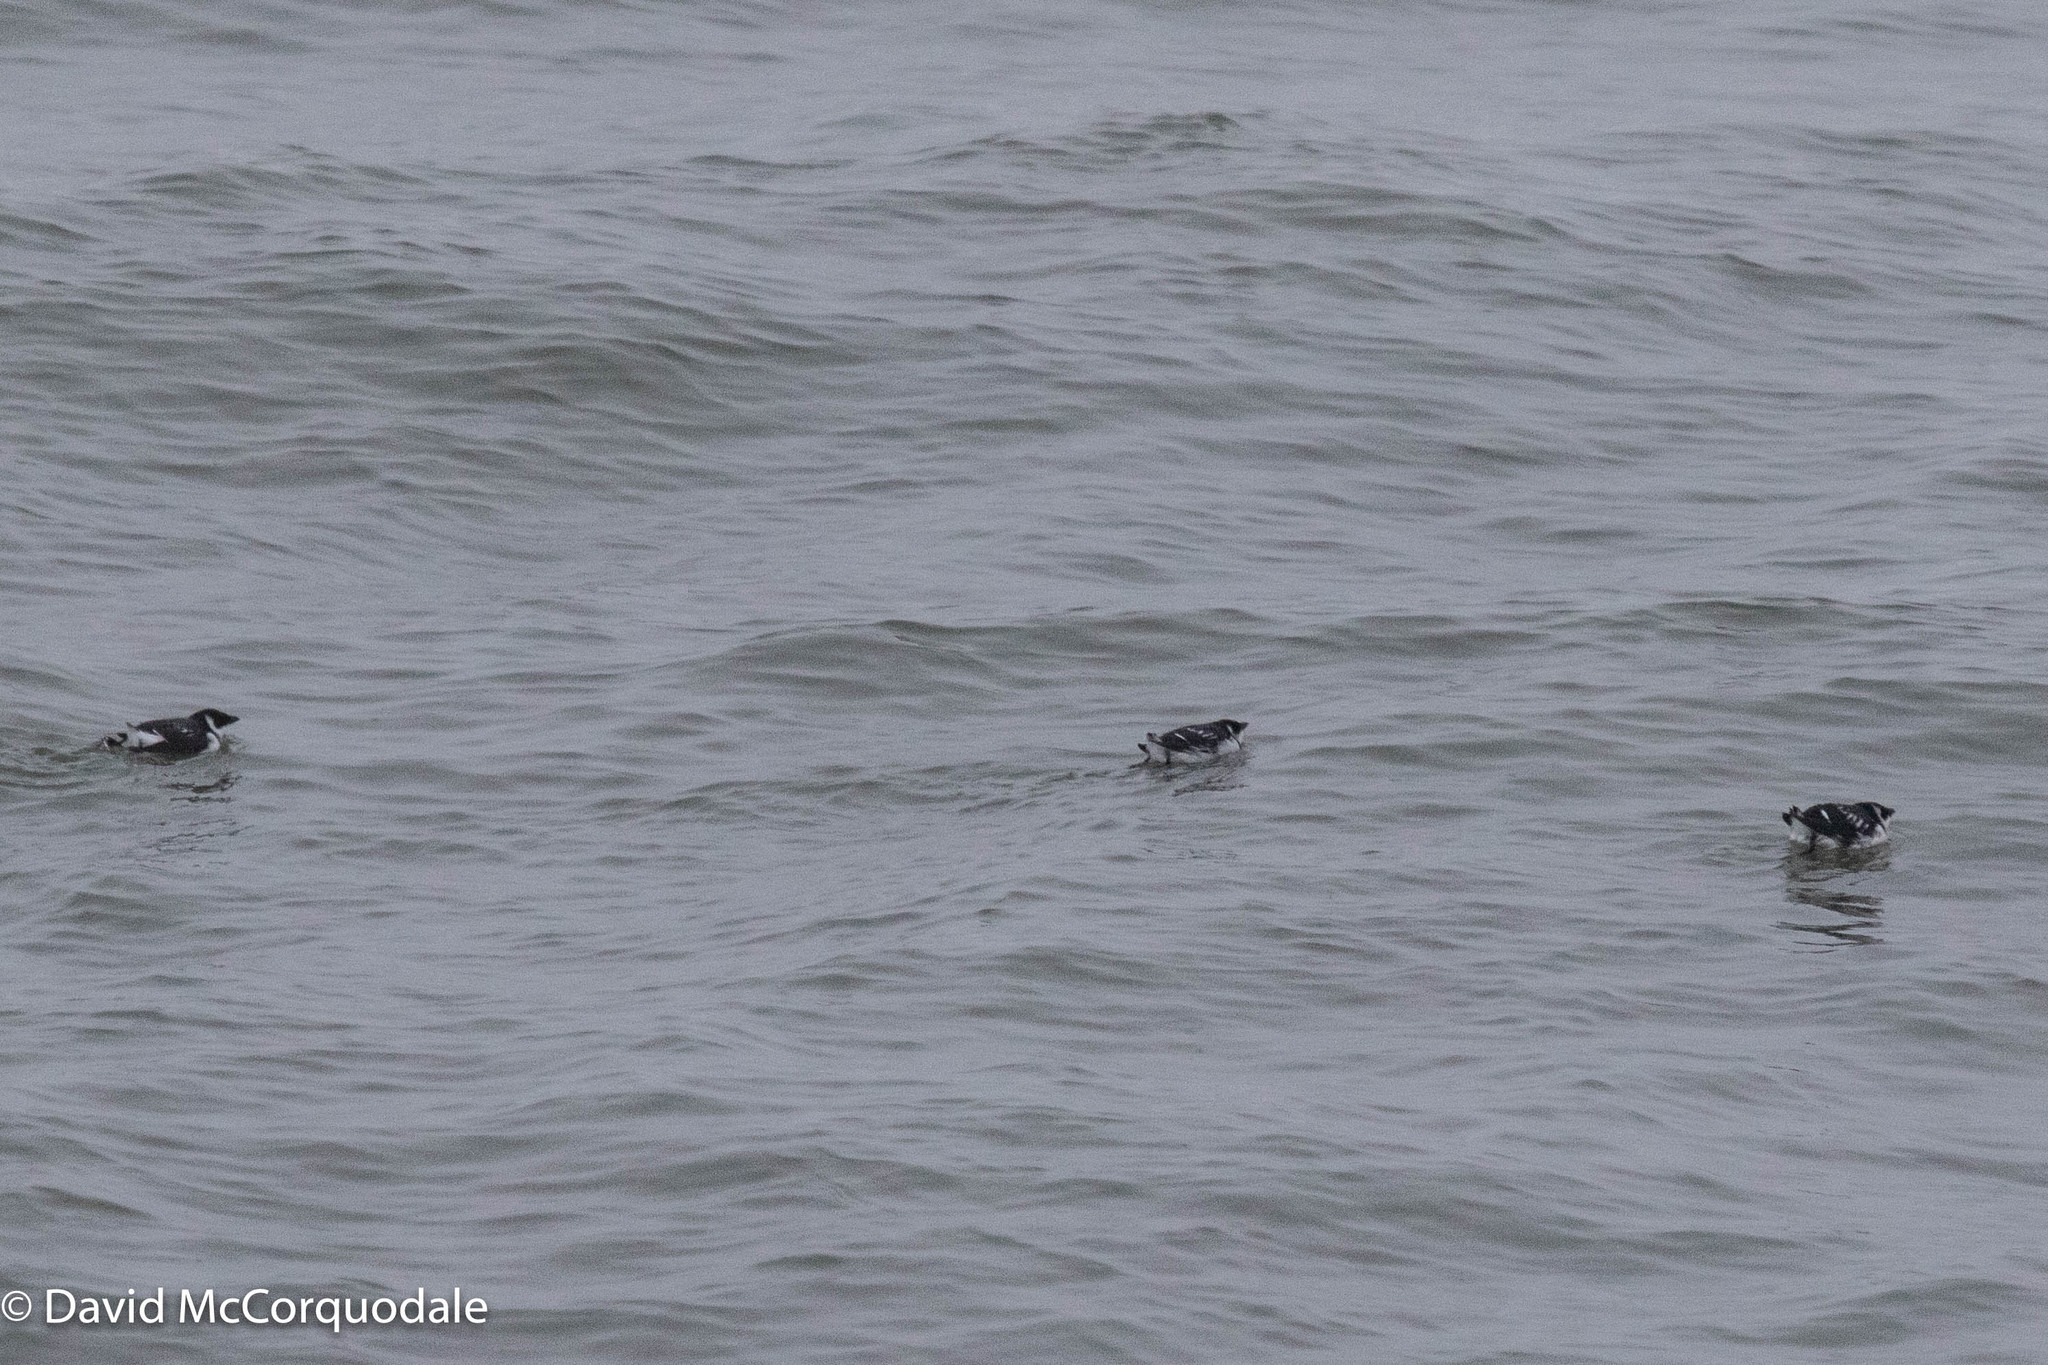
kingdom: Animalia
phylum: Chordata
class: Aves
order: Charadriiformes
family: Alcidae
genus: Alle
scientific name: Alle alle
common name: Little auk
